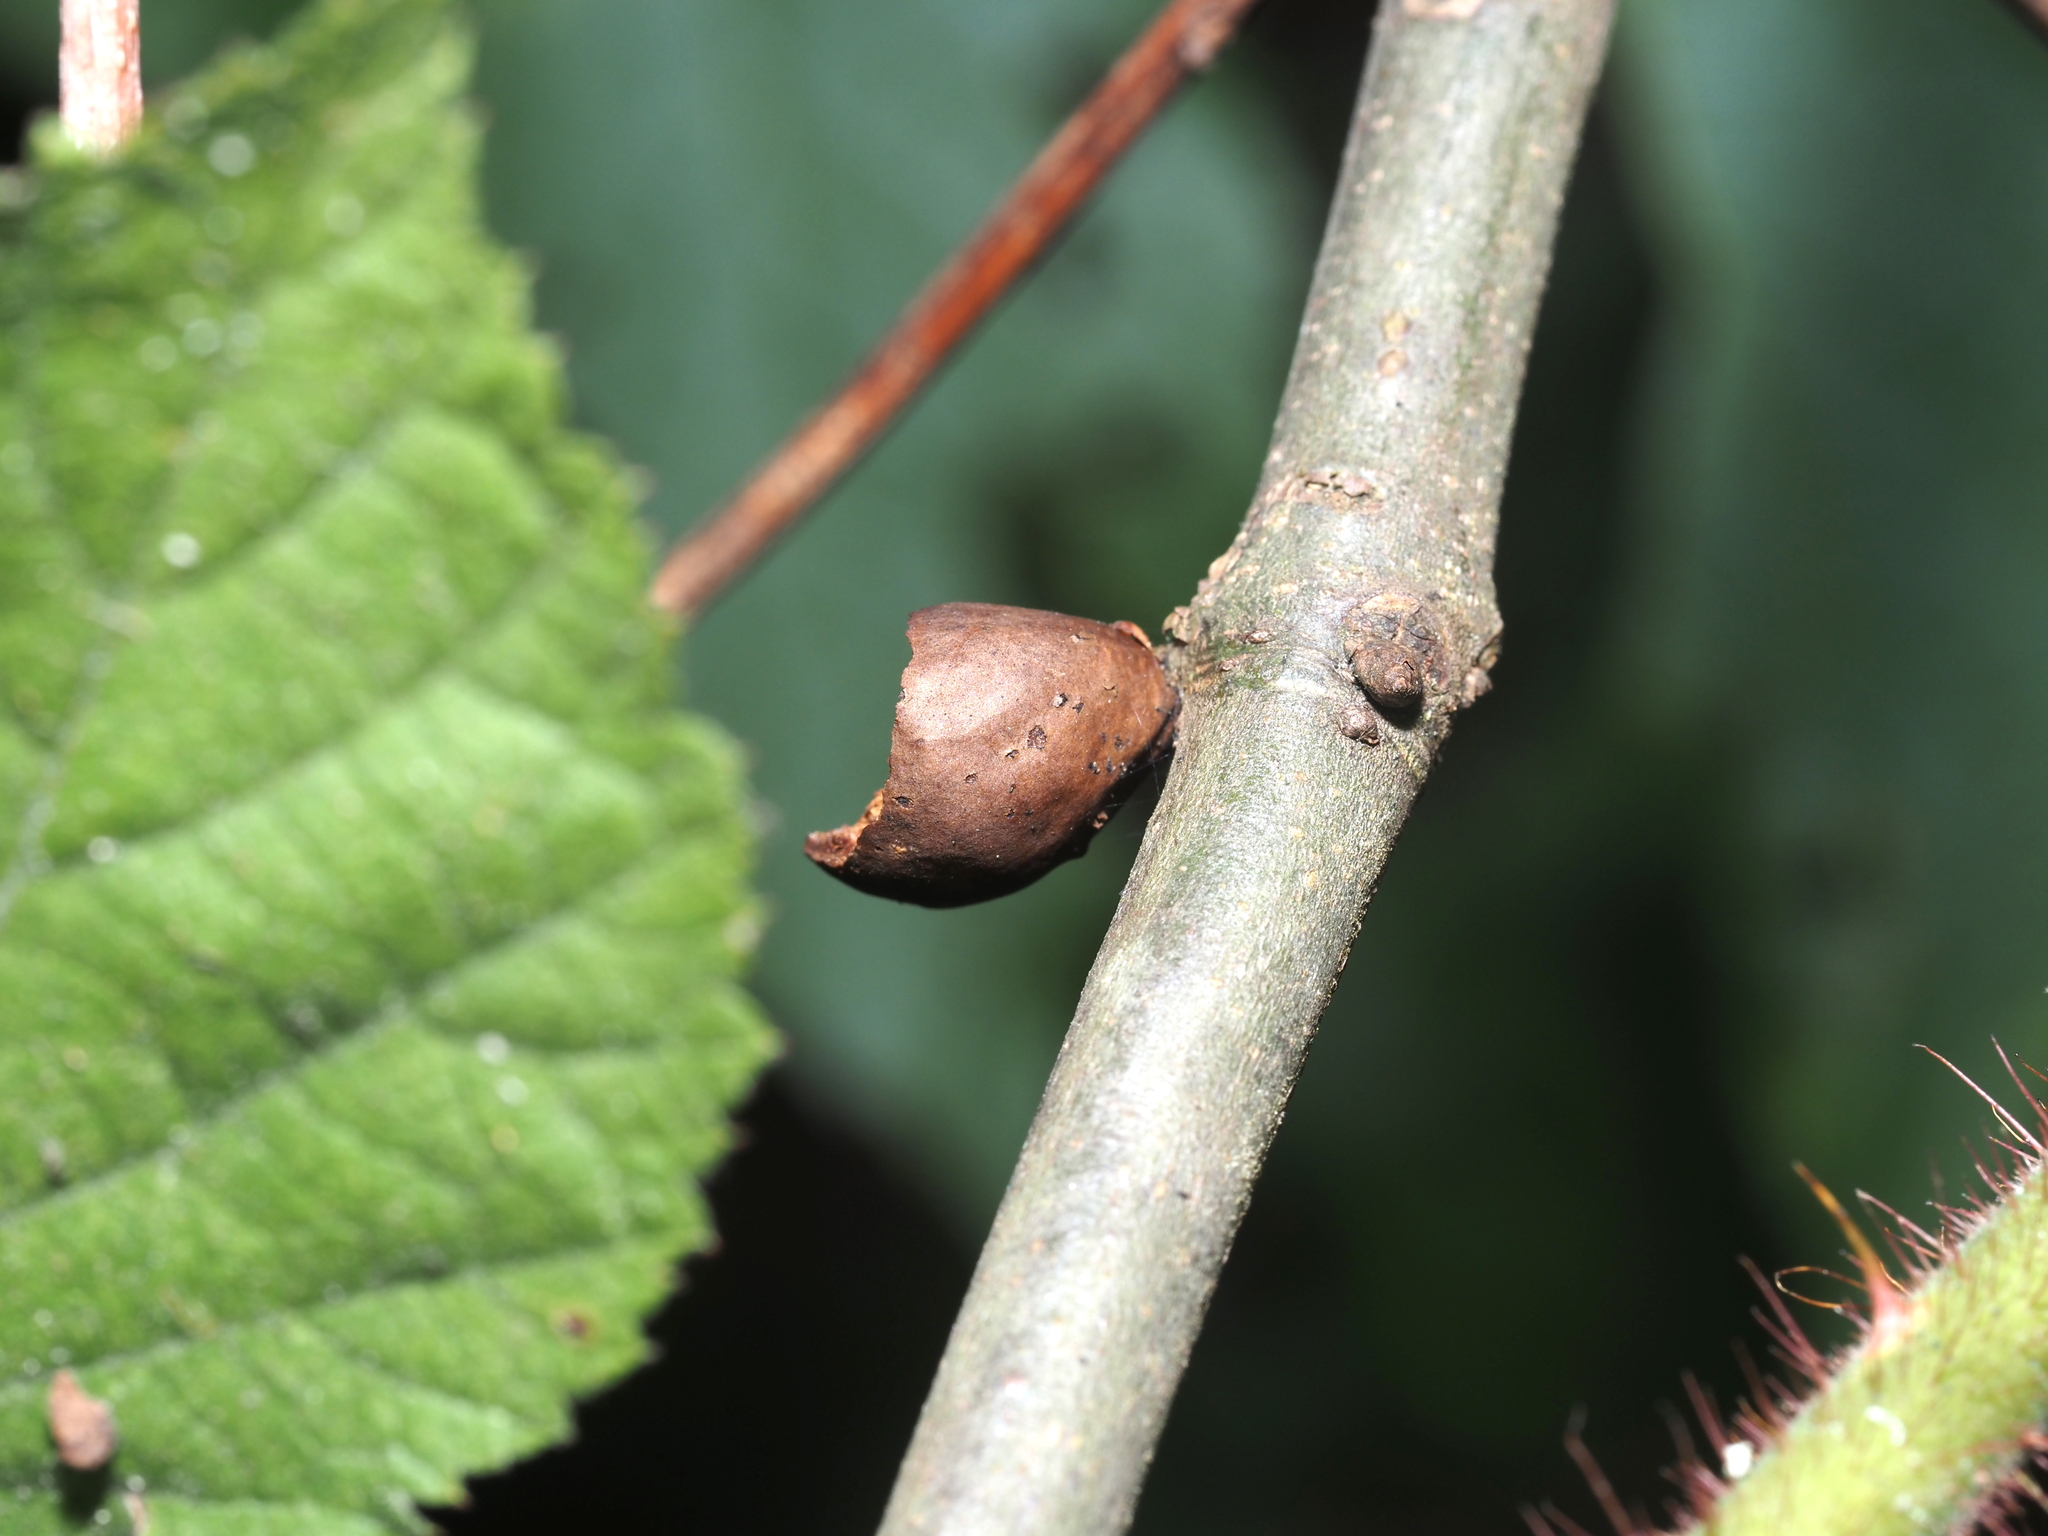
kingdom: Animalia
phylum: Arthropoda
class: Insecta
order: Hymenoptera
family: Cynipidae
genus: Amphibolips
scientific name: Amphibolips
